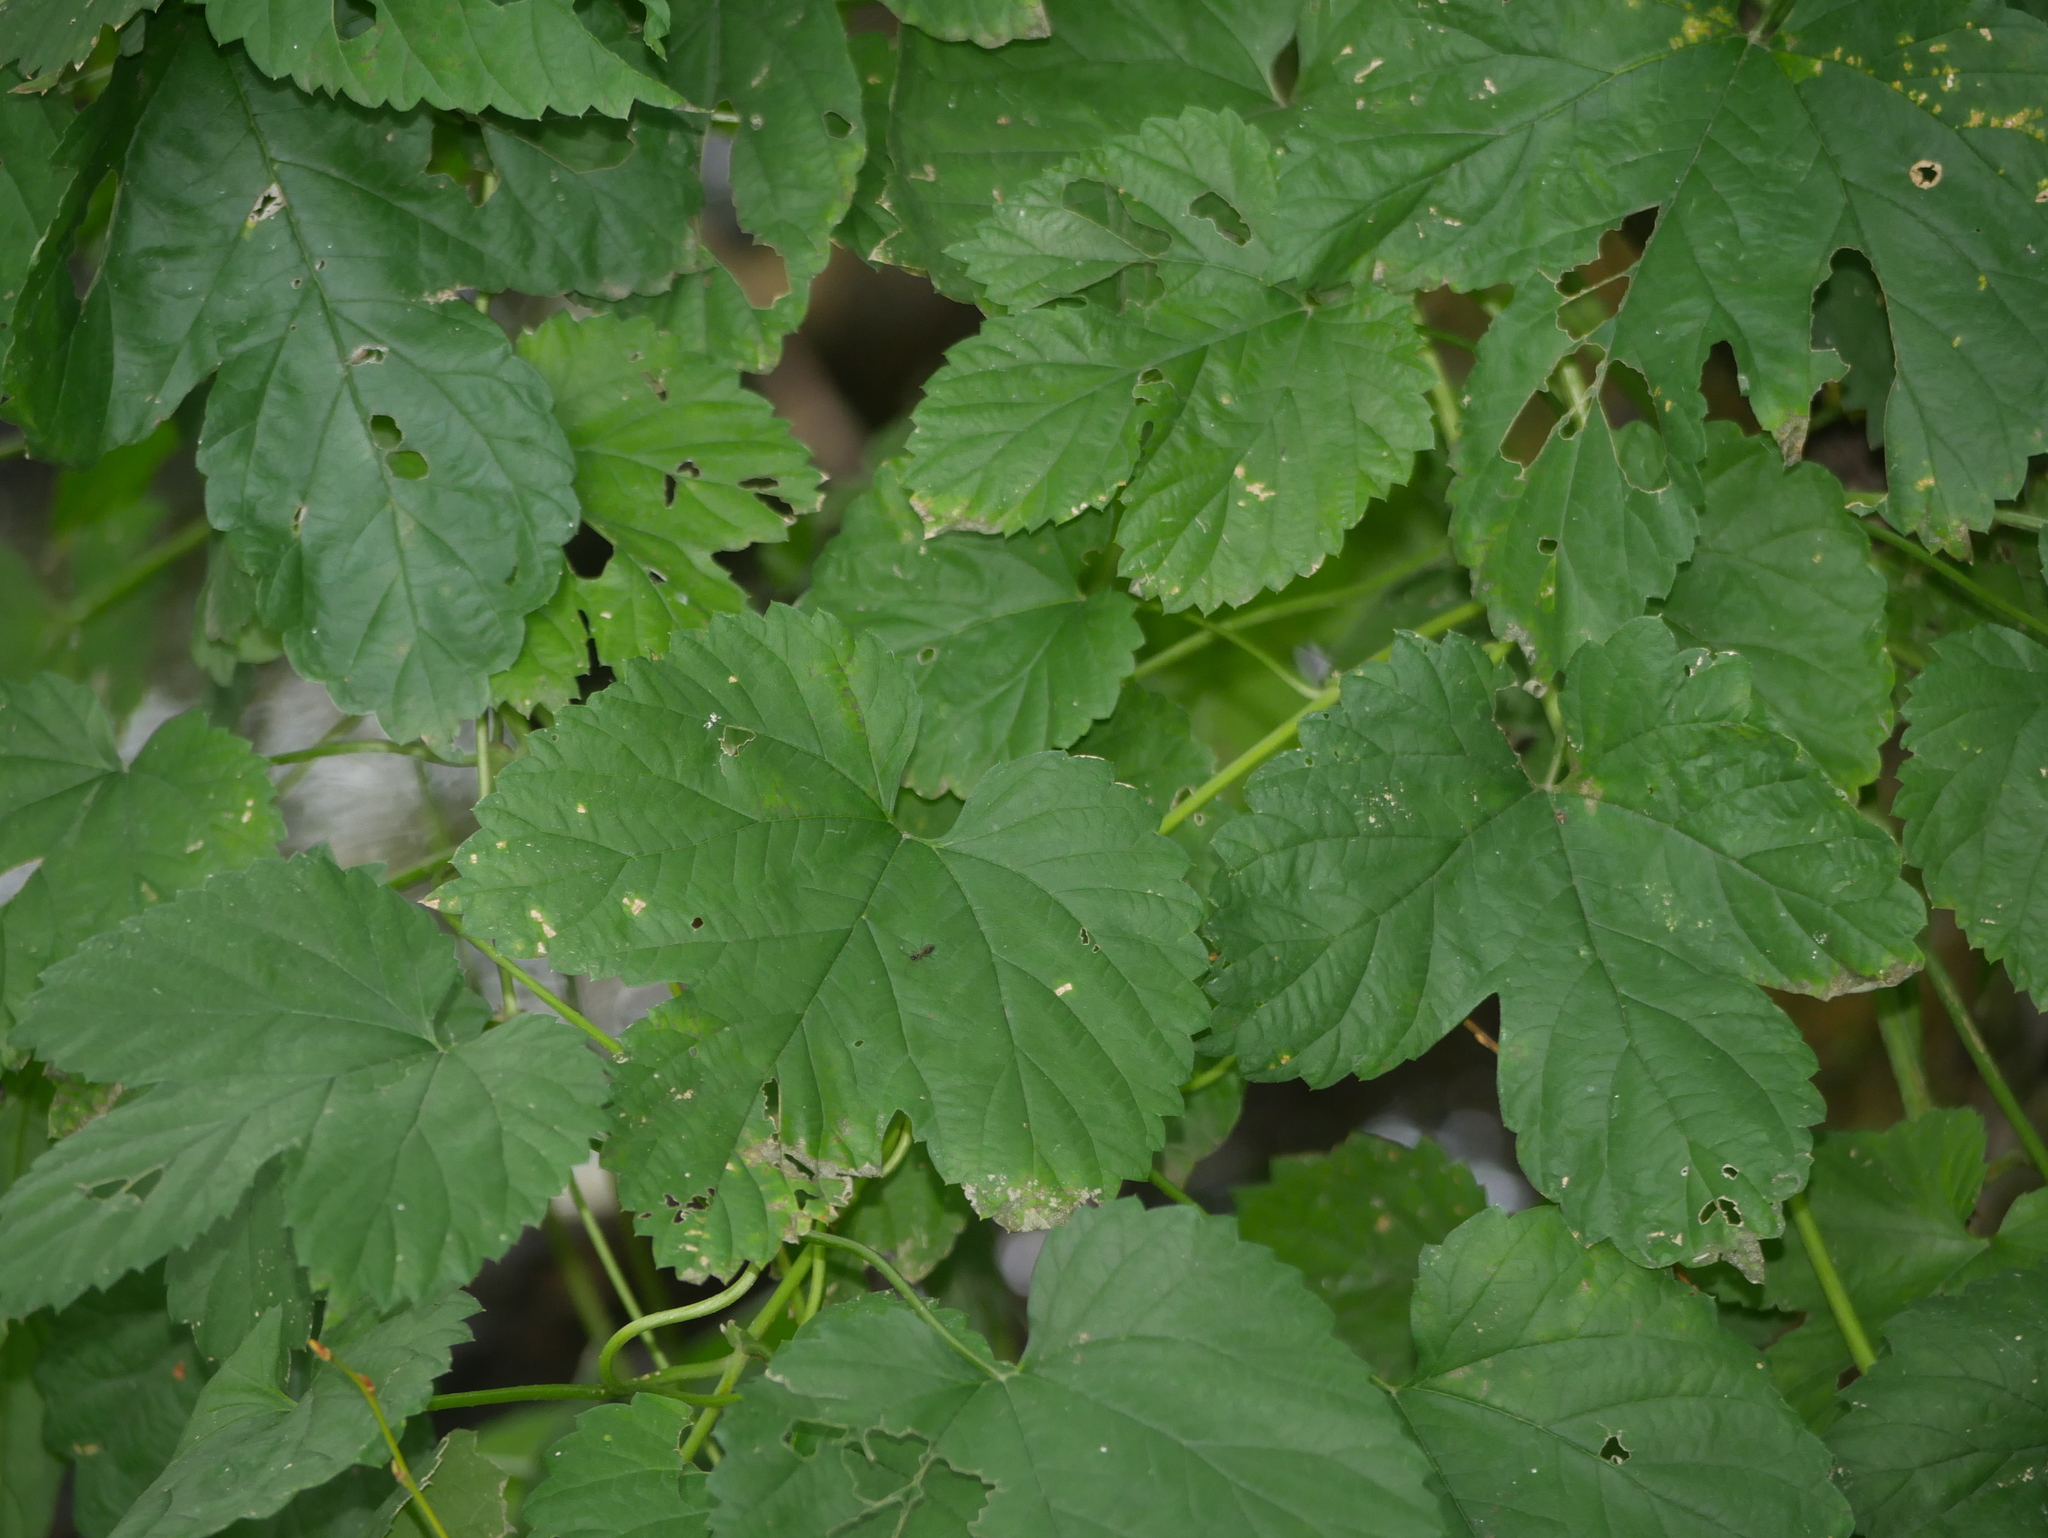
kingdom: Plantae
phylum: Tracheophyta
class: Magnoliopsida
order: Rosales
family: Cannabaceae
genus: Humulus
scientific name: Humulus lupulus
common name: Hop
